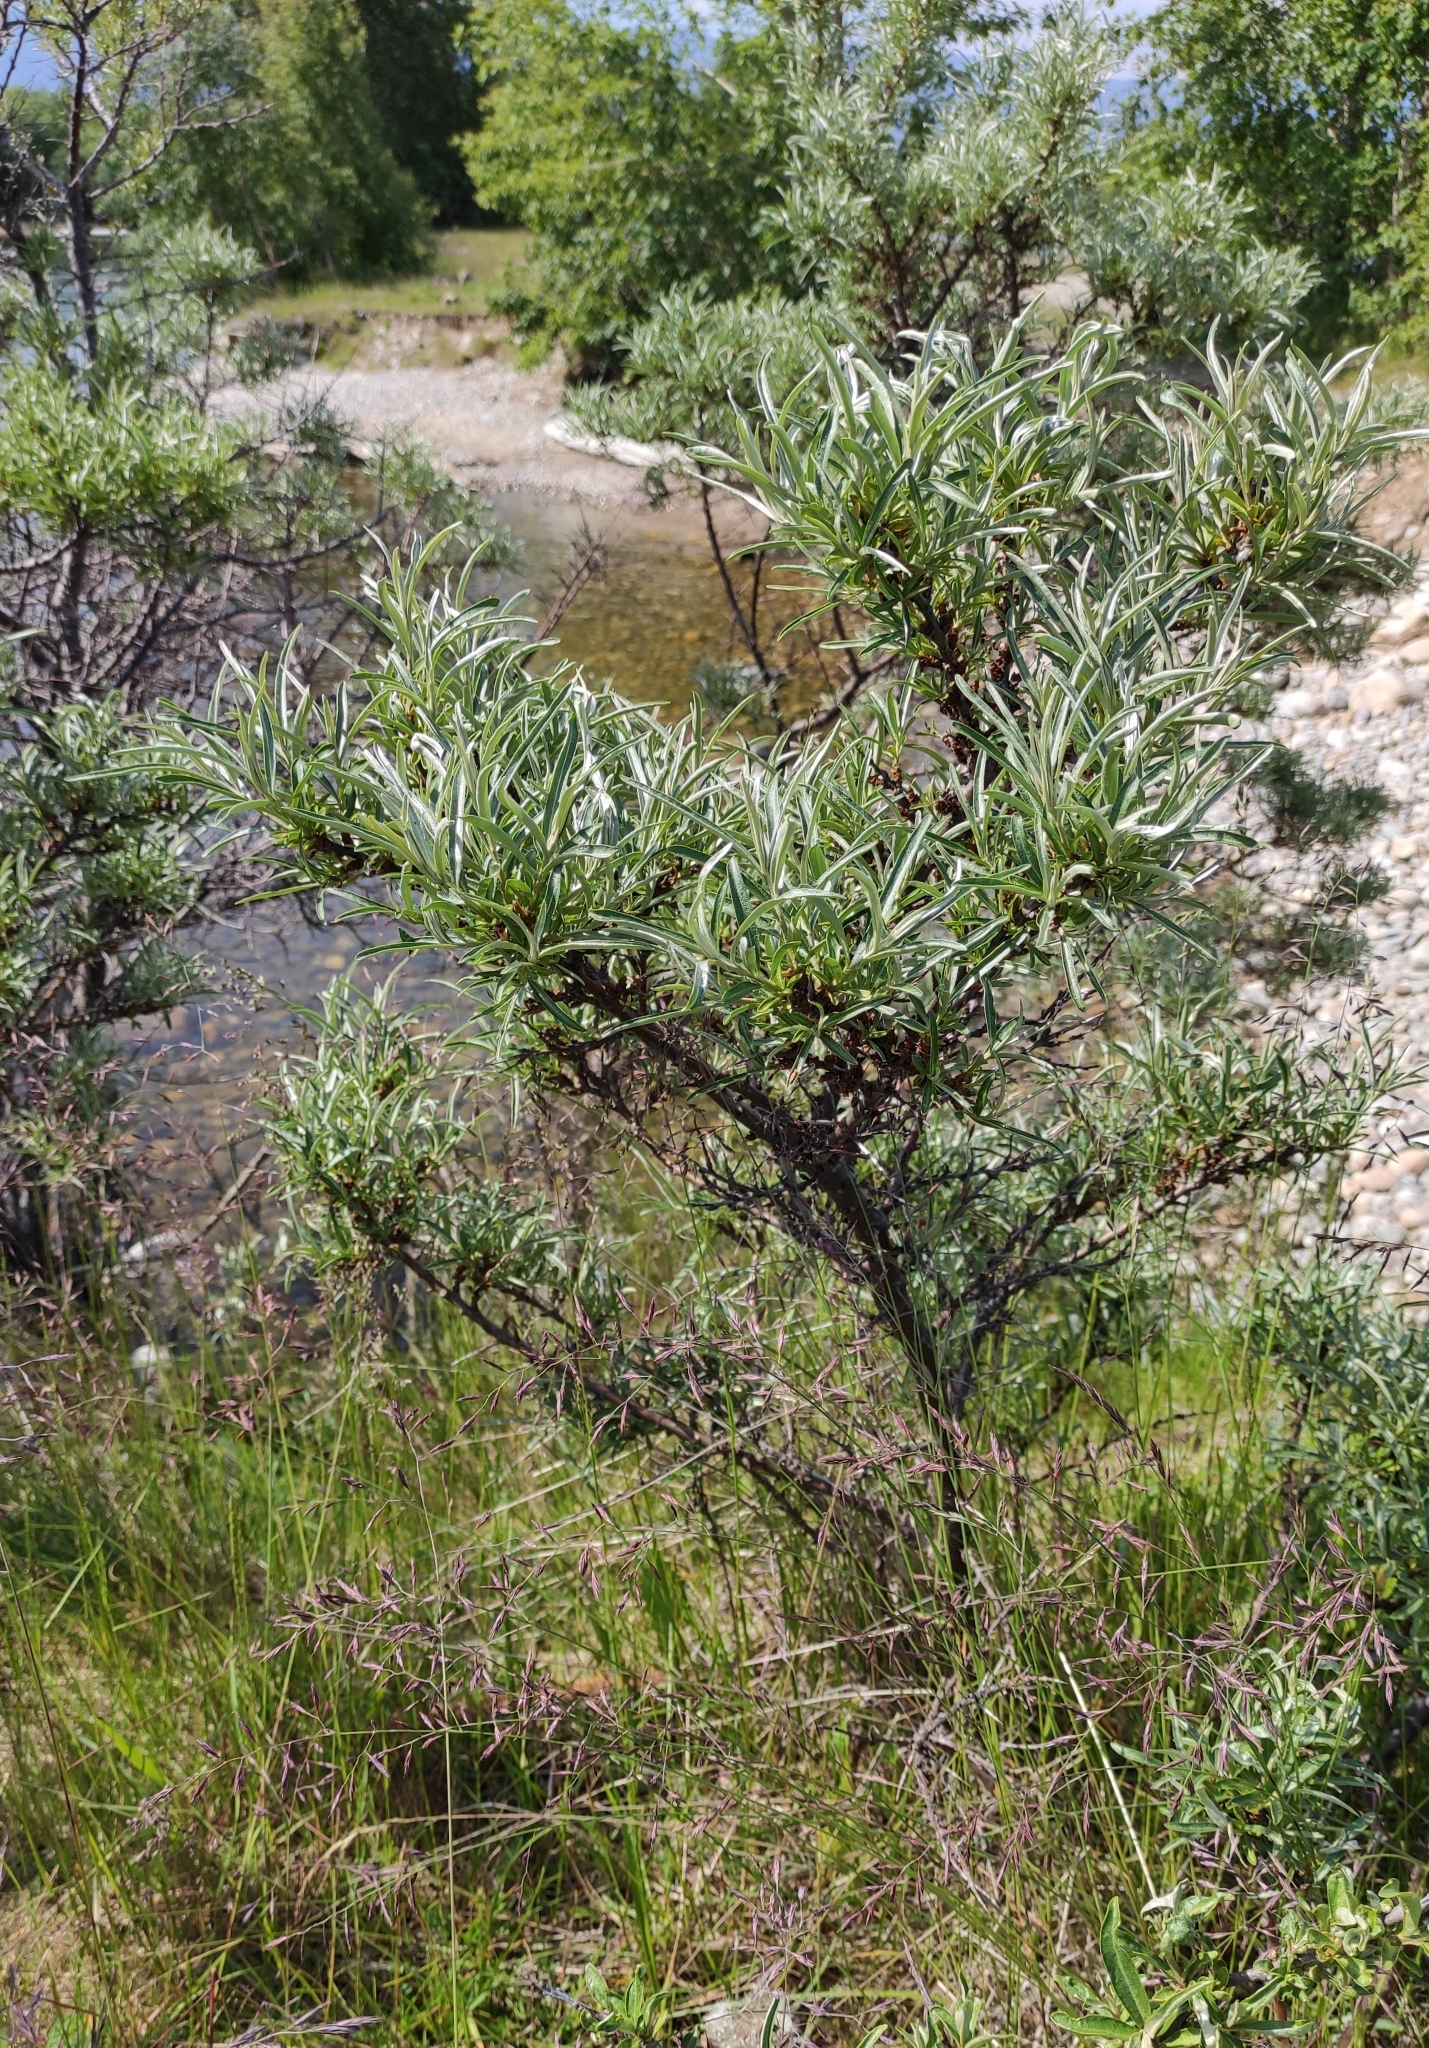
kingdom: Plantae
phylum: Tracheophyta
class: Magnoliopsida
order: Rosales
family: Elaeagnaceae
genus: Hippophae
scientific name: Hippophae rhamnoides
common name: Sea-buckthorn
